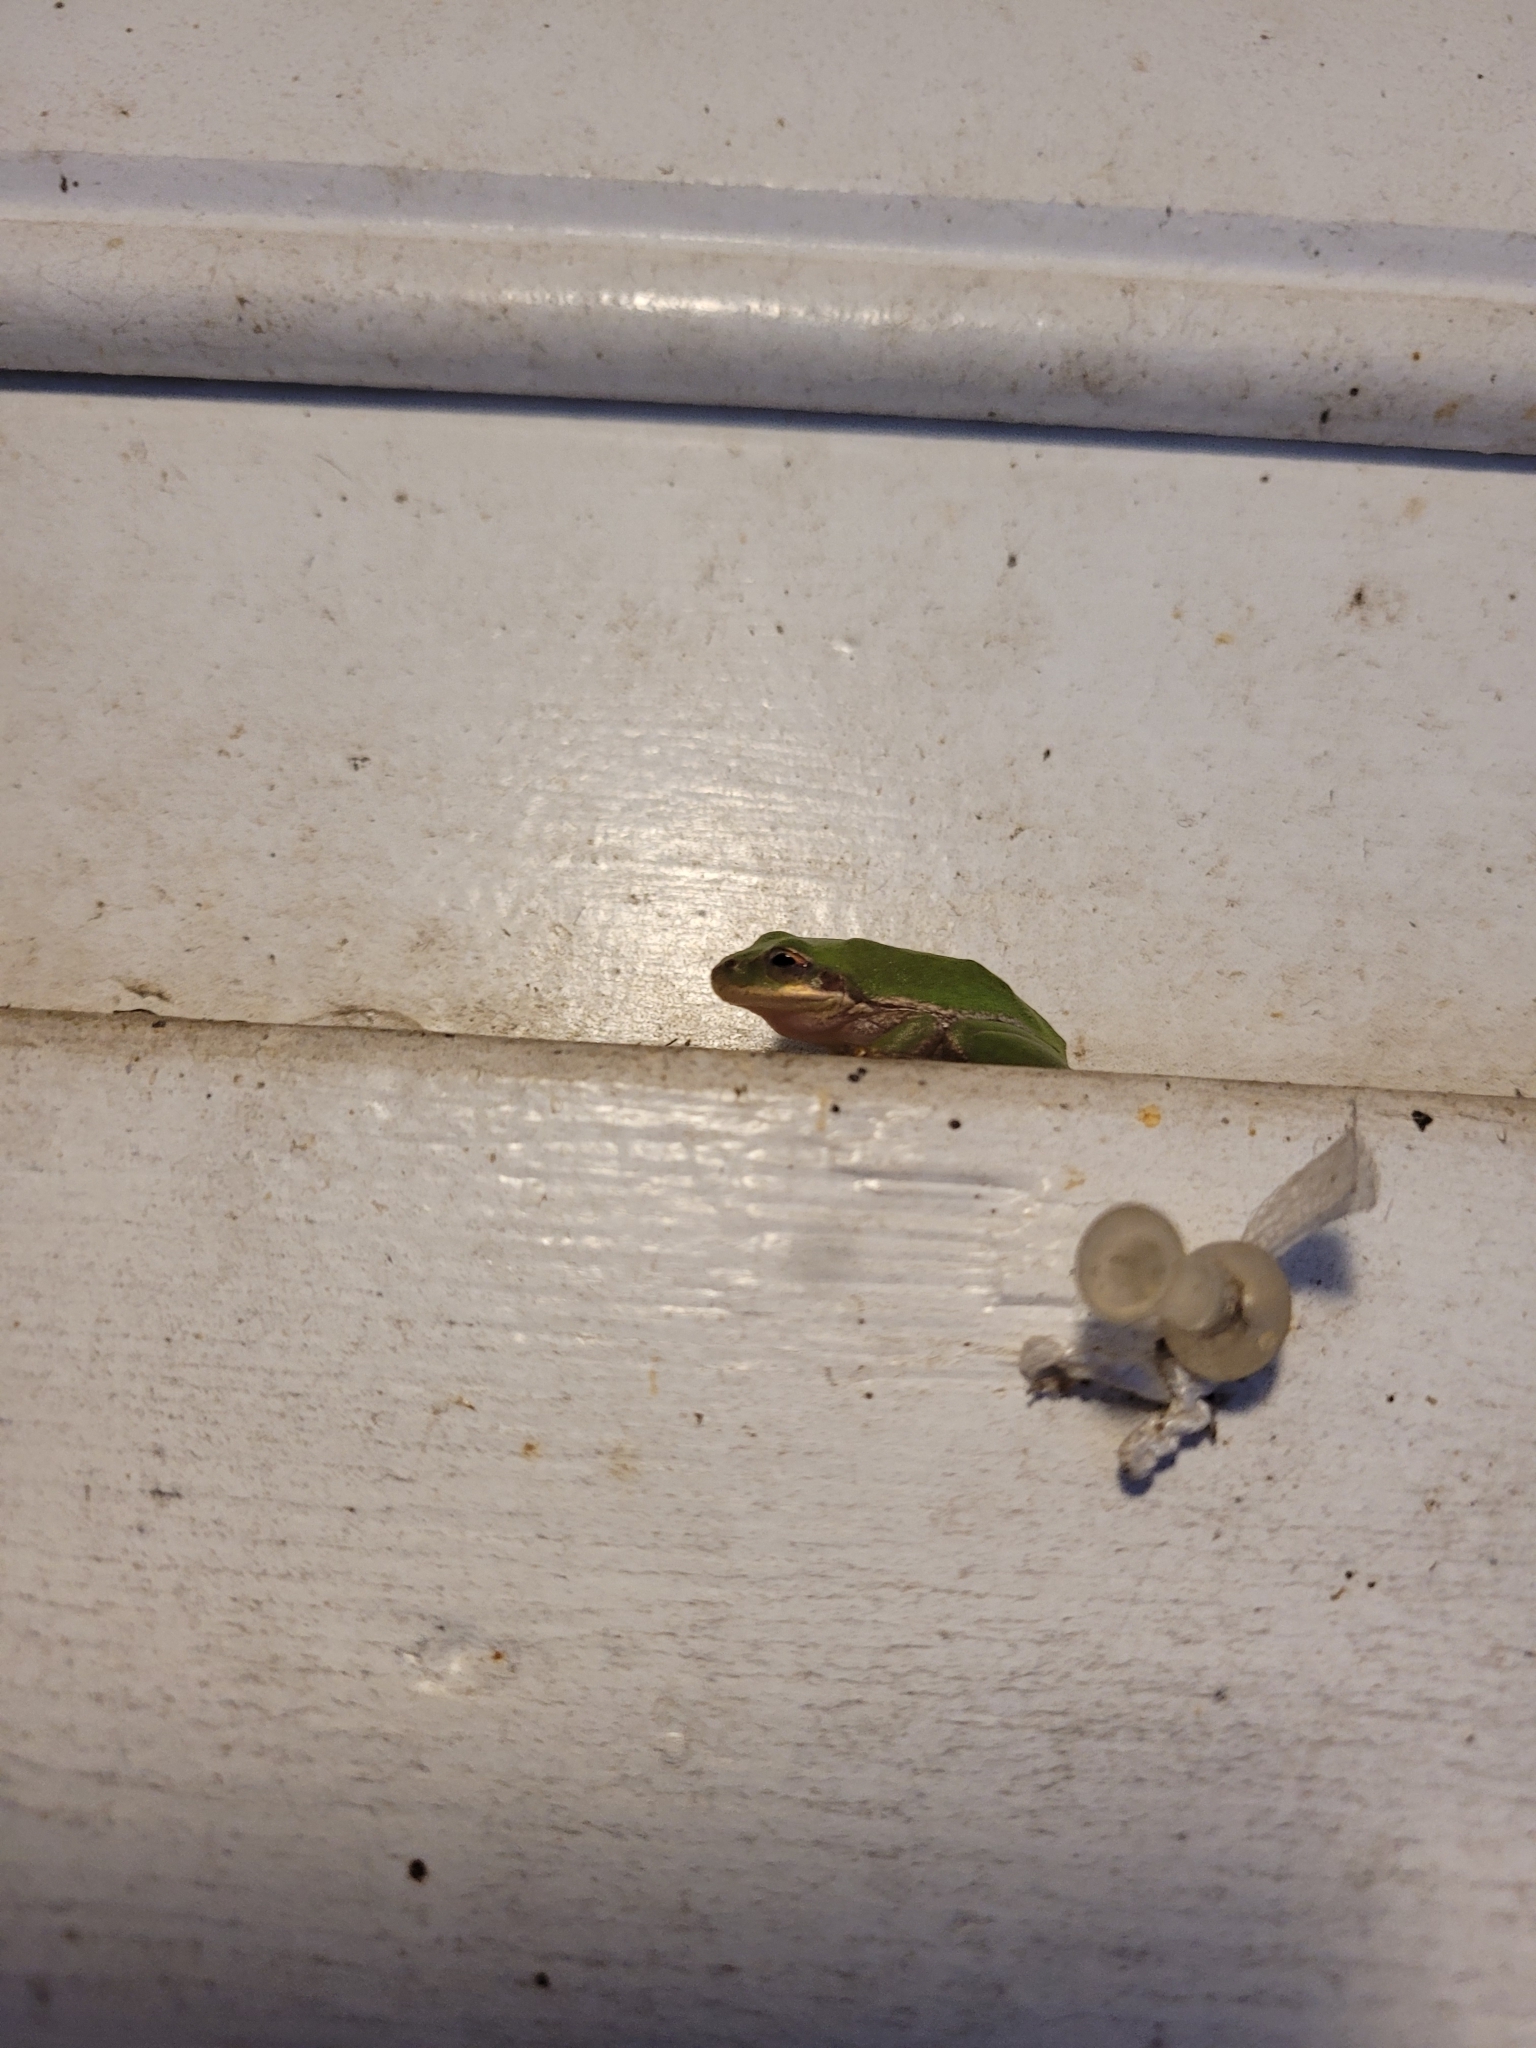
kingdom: Animalia
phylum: Chordata
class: Amphibia
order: Anura
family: Hylidae
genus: Dryophytes
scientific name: Dryophytes squirellus
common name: Squirrel treefrog
